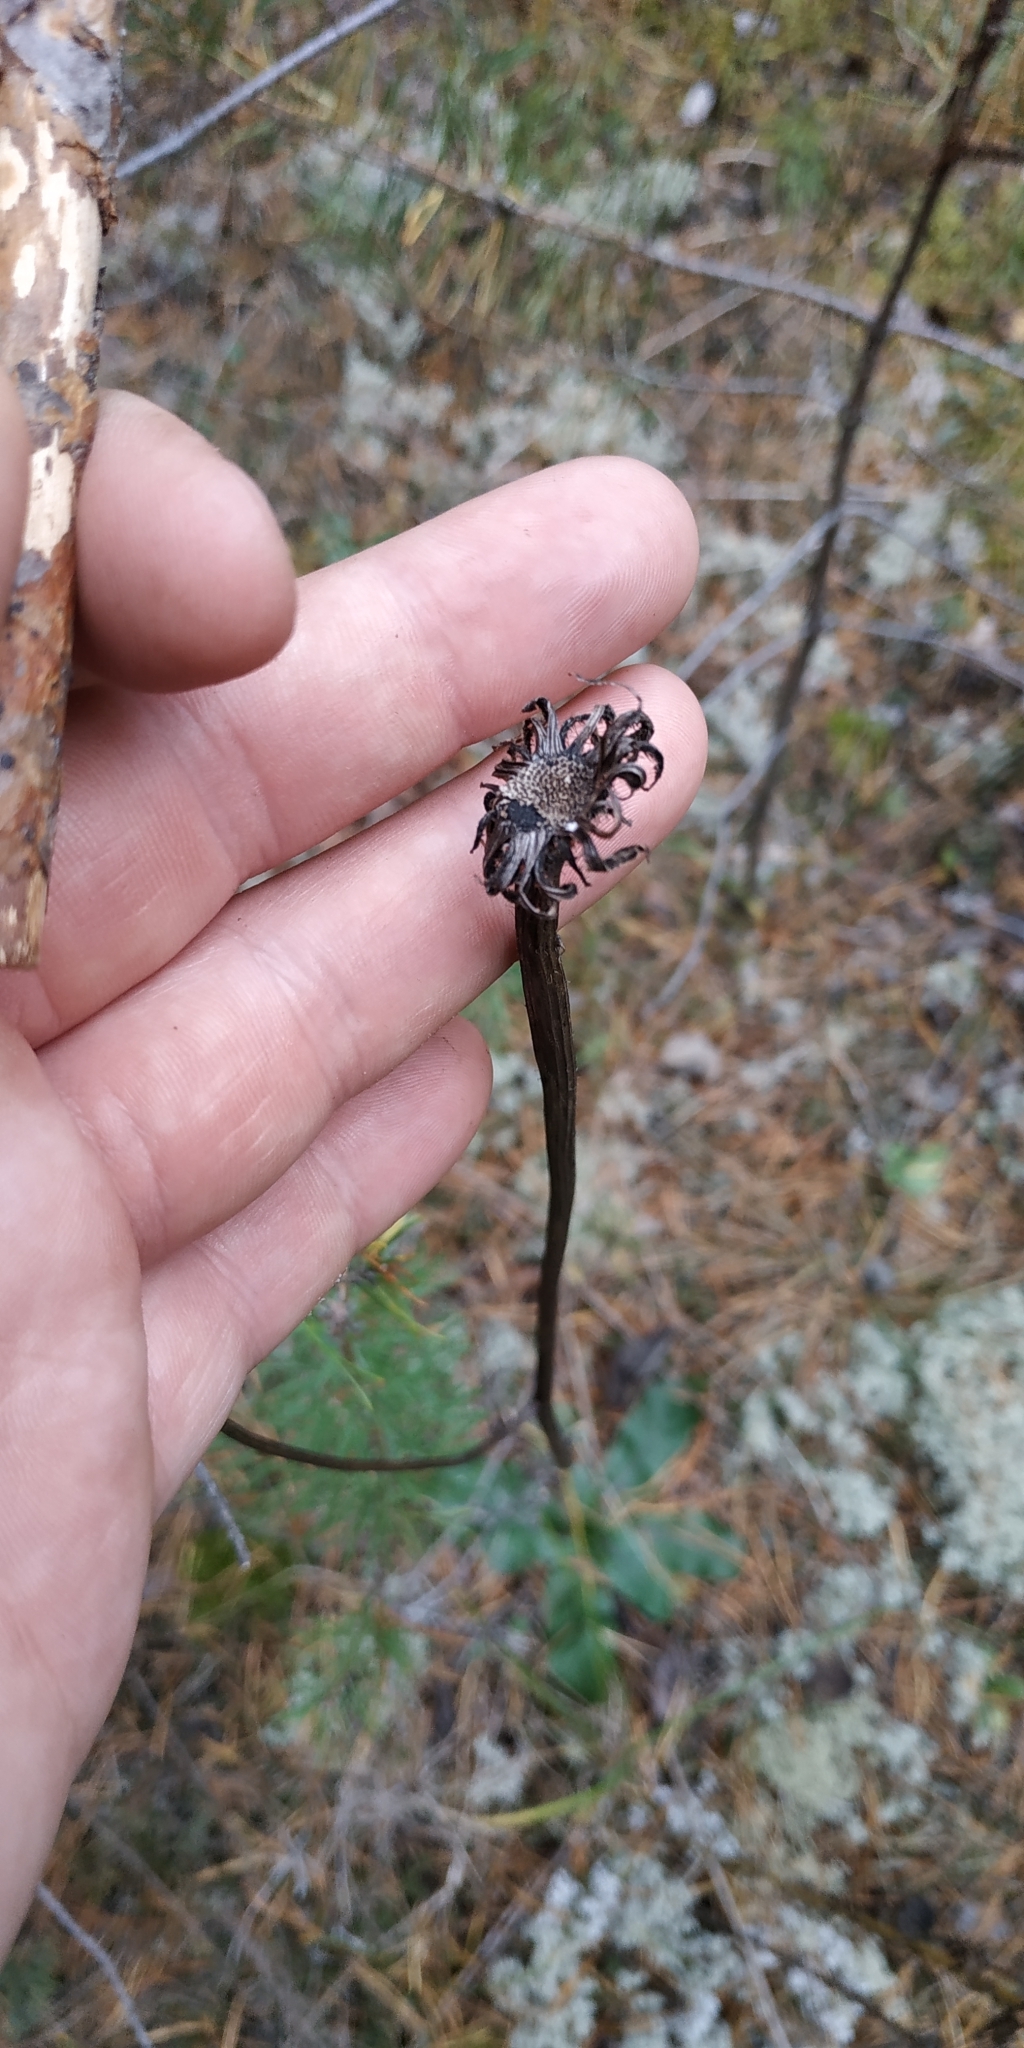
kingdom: Plantae
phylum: Tracheophyta
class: Magnoliopsida
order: Asterales
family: Asteraceae
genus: Trommsdorffia
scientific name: Trommsdorffia maculata
